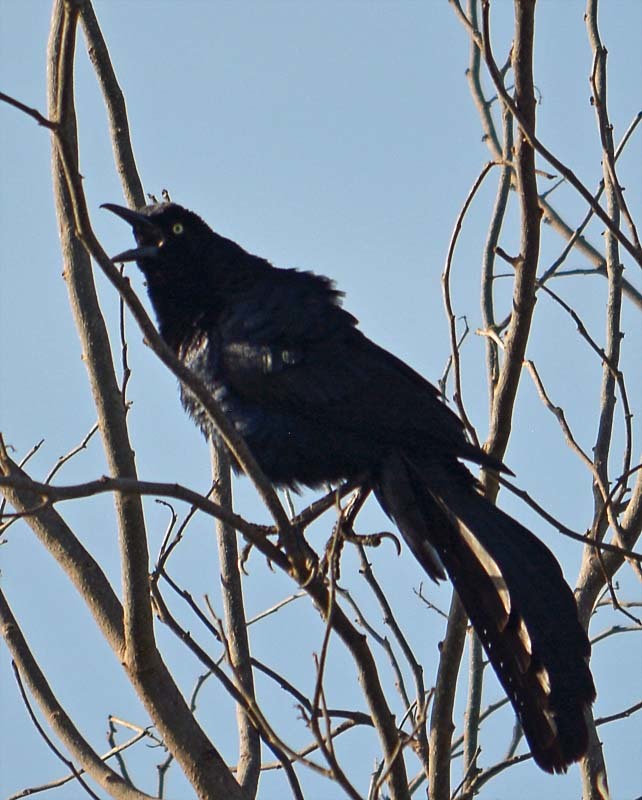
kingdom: Animalia
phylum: Chordata
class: Aves
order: Passeriformes
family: Icteridae
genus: Quiscalus
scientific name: Quiscalus mexicanus
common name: Great-tailed grackle
